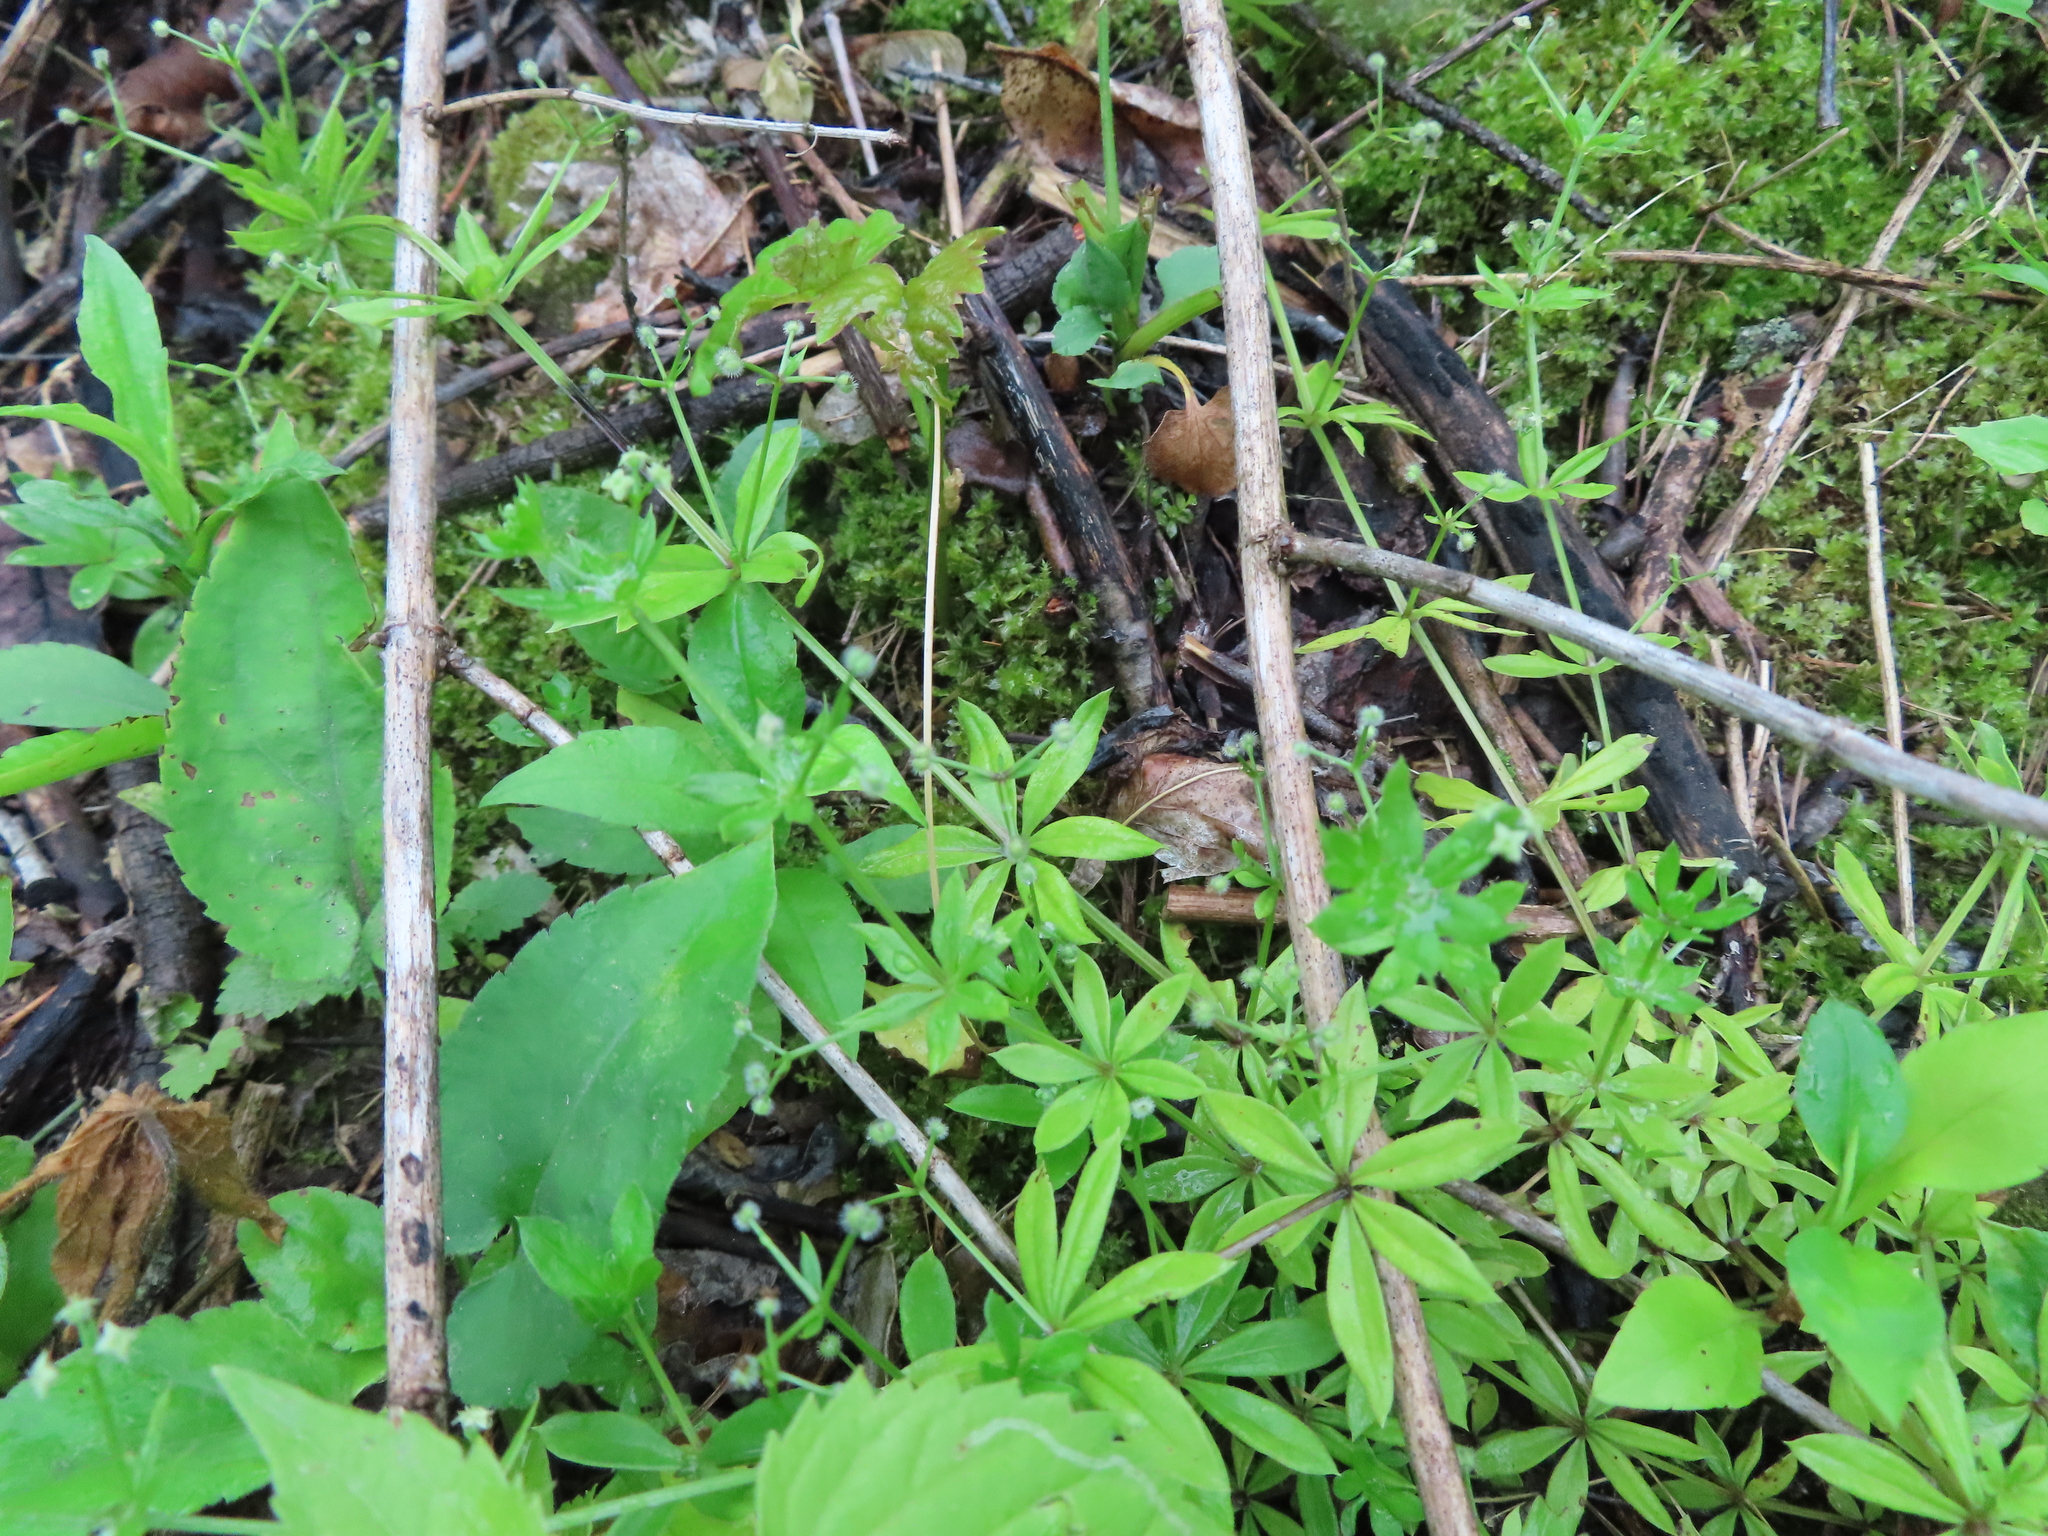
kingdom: Plantae
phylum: Tracheophyta
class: Magnoliopsida
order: Gentianales
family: Rubiaceae
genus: Galium
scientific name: Galium triflorum
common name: Fragrant bedstraw
